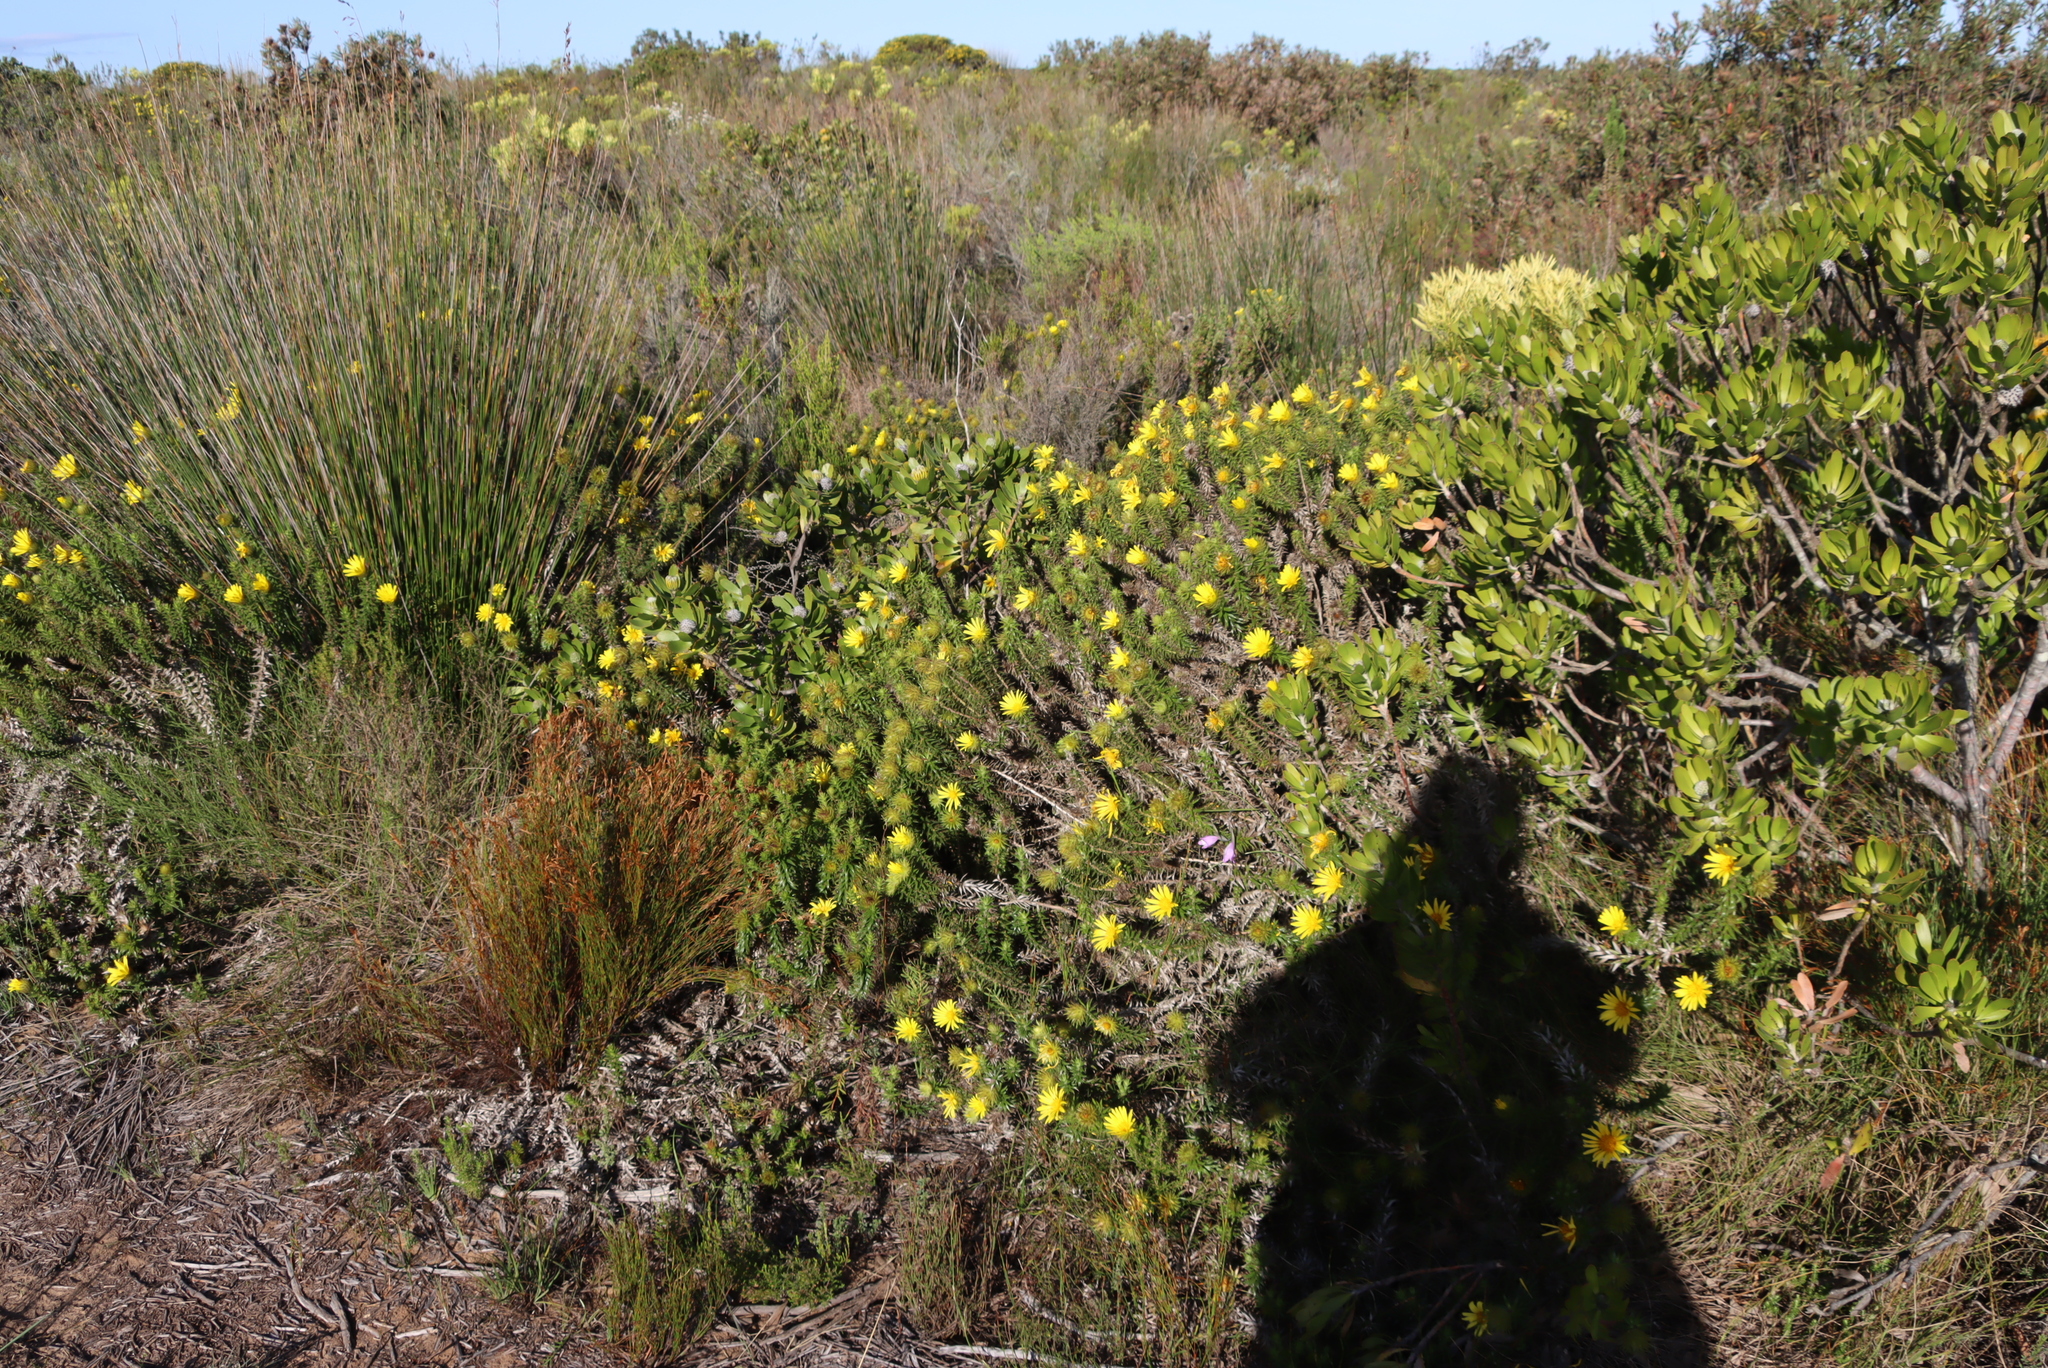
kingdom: Plantae
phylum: Tracheophyta
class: Magnoliopsida
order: Asterales
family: Asteraceae
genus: Cullumia
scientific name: Cullumia carlinoides
